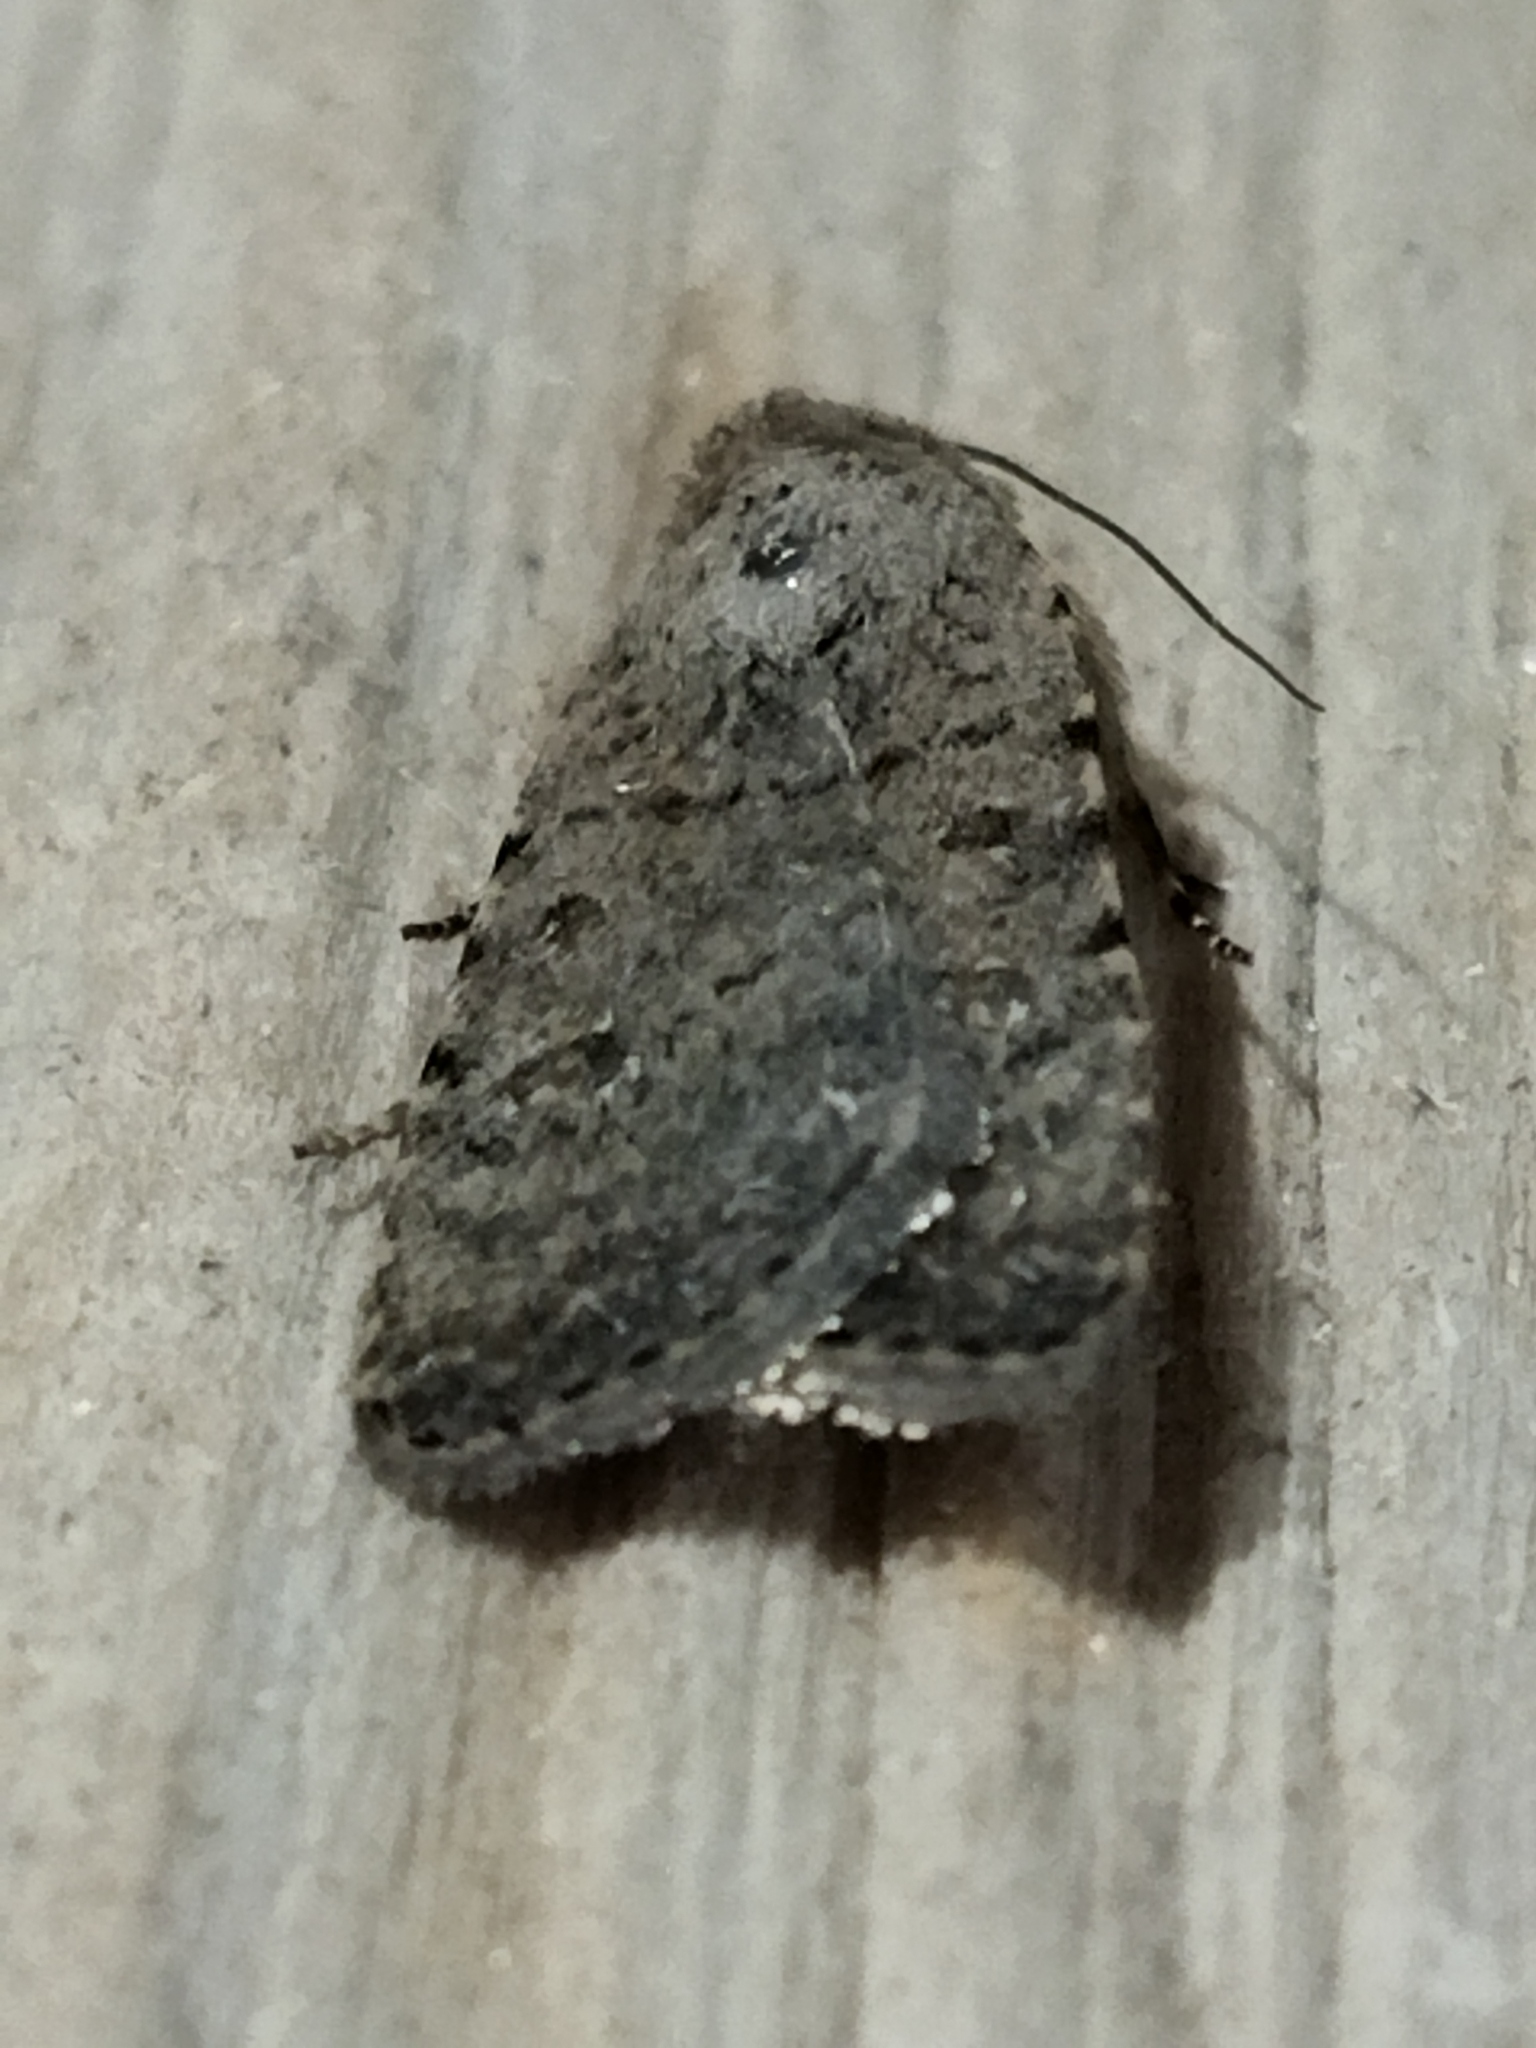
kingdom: Animalia
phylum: Arthropoda
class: Insecta
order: Lepidoptera
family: Noctuidae
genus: Caradrina
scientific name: Caradrina clavipalpis
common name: Pale mottled willow
